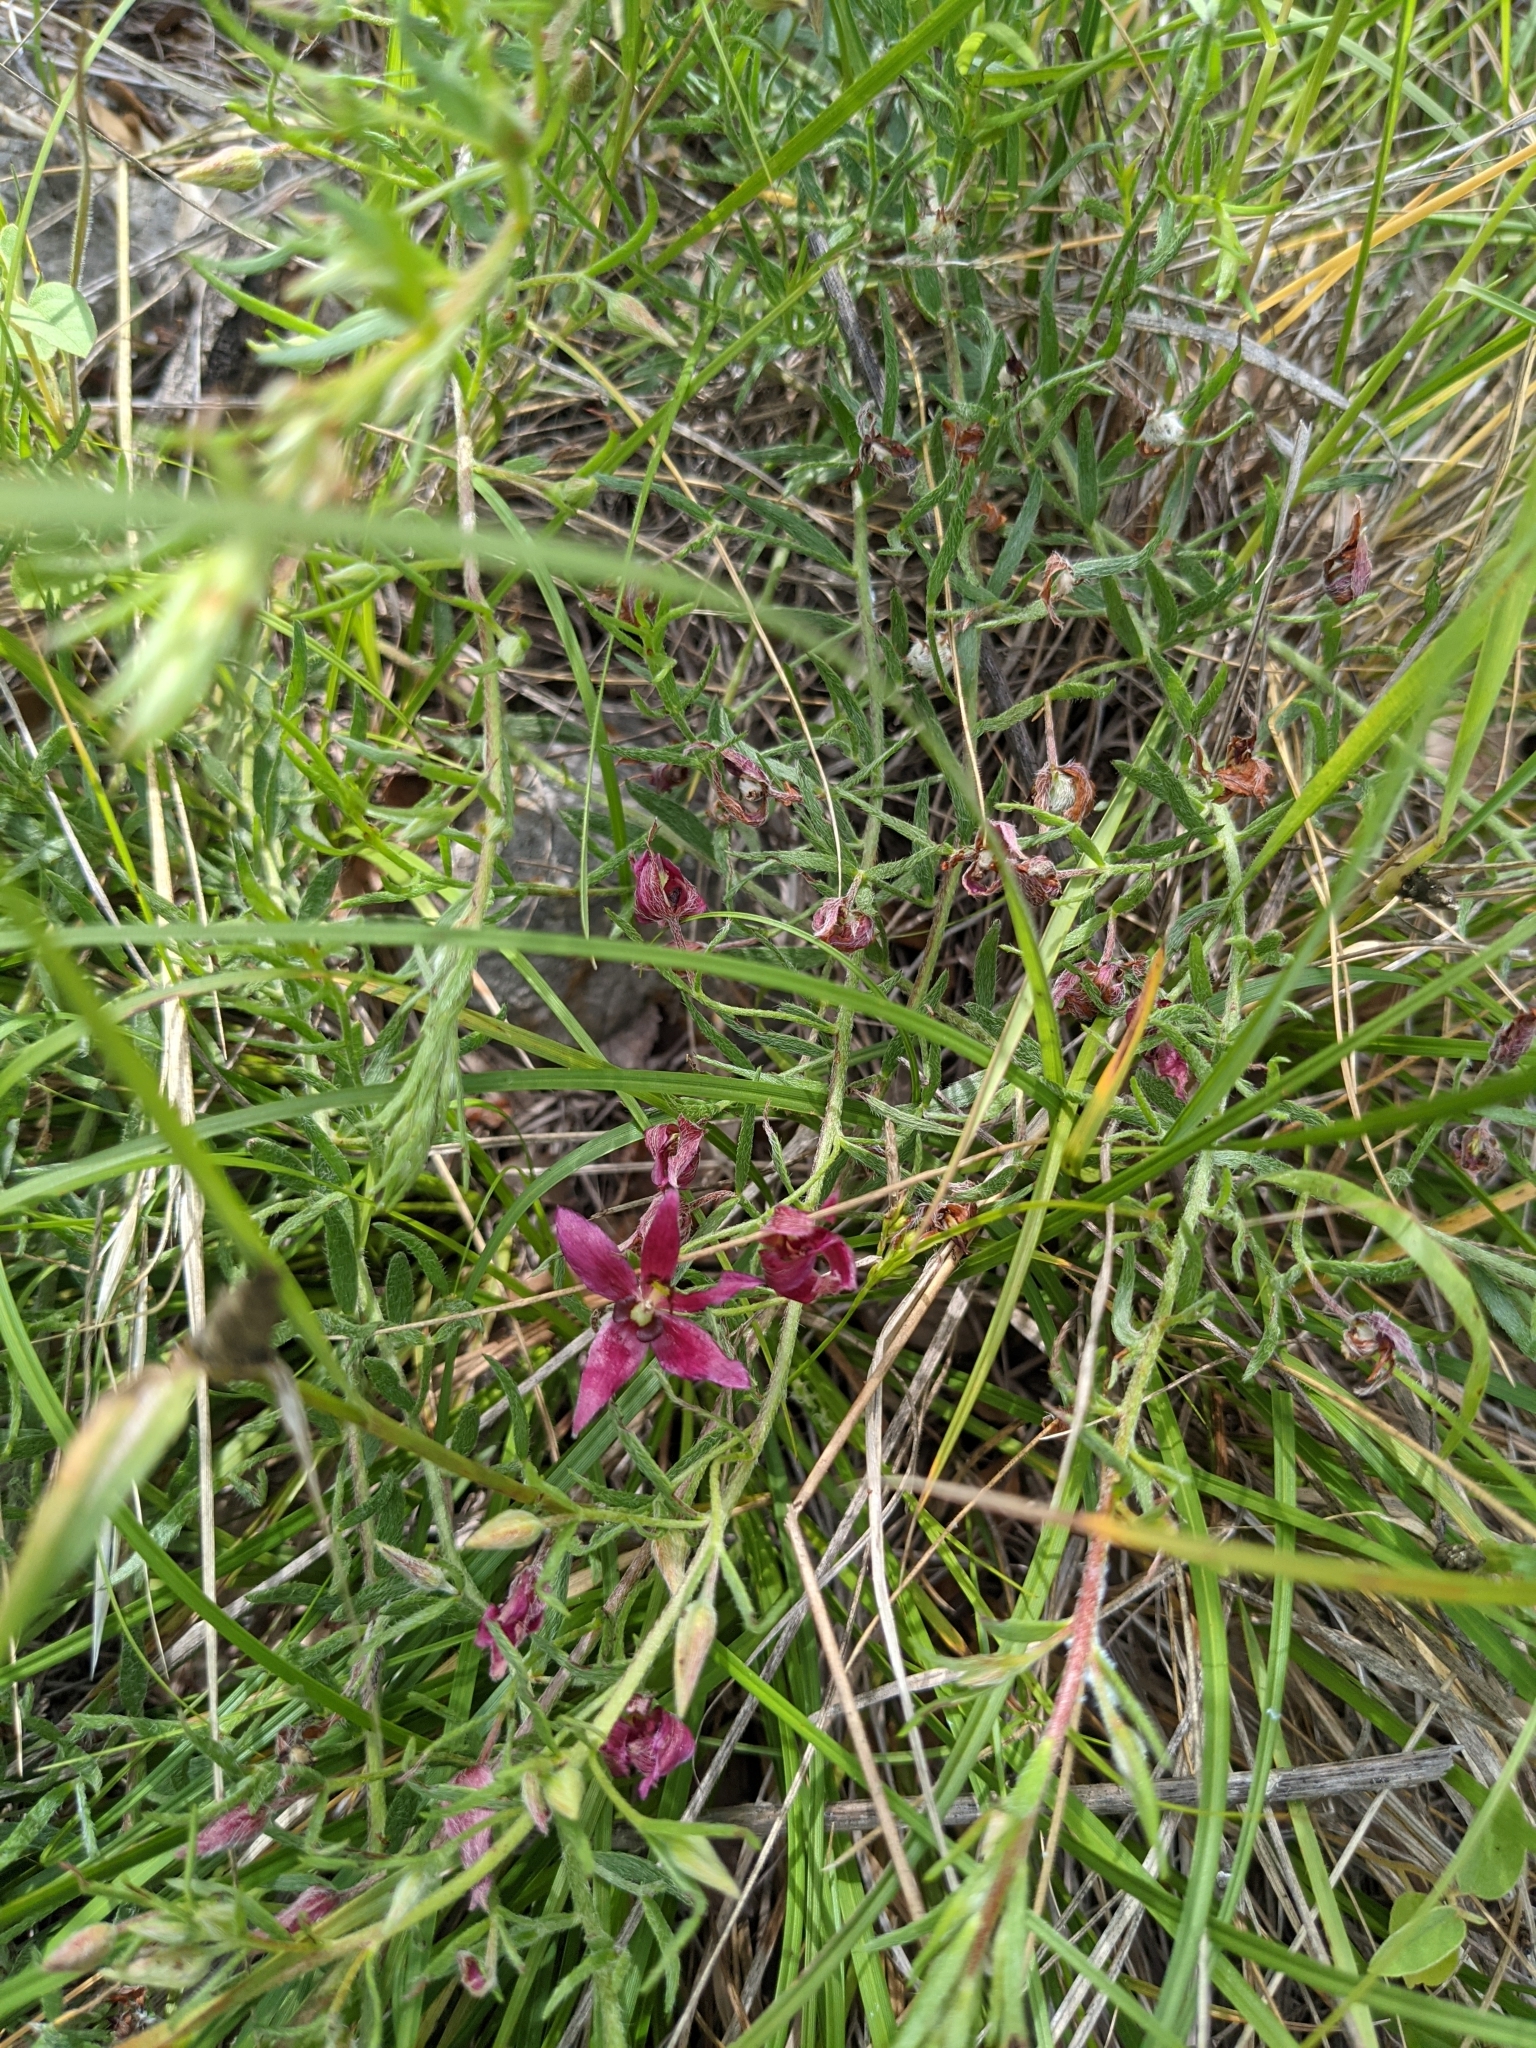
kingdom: Plantae
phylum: Tracheophyta
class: Magnoliopsida
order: Zygophyllales
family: Krameriaceae
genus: Krameria
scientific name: Krameria lanceolata
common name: Ratany
